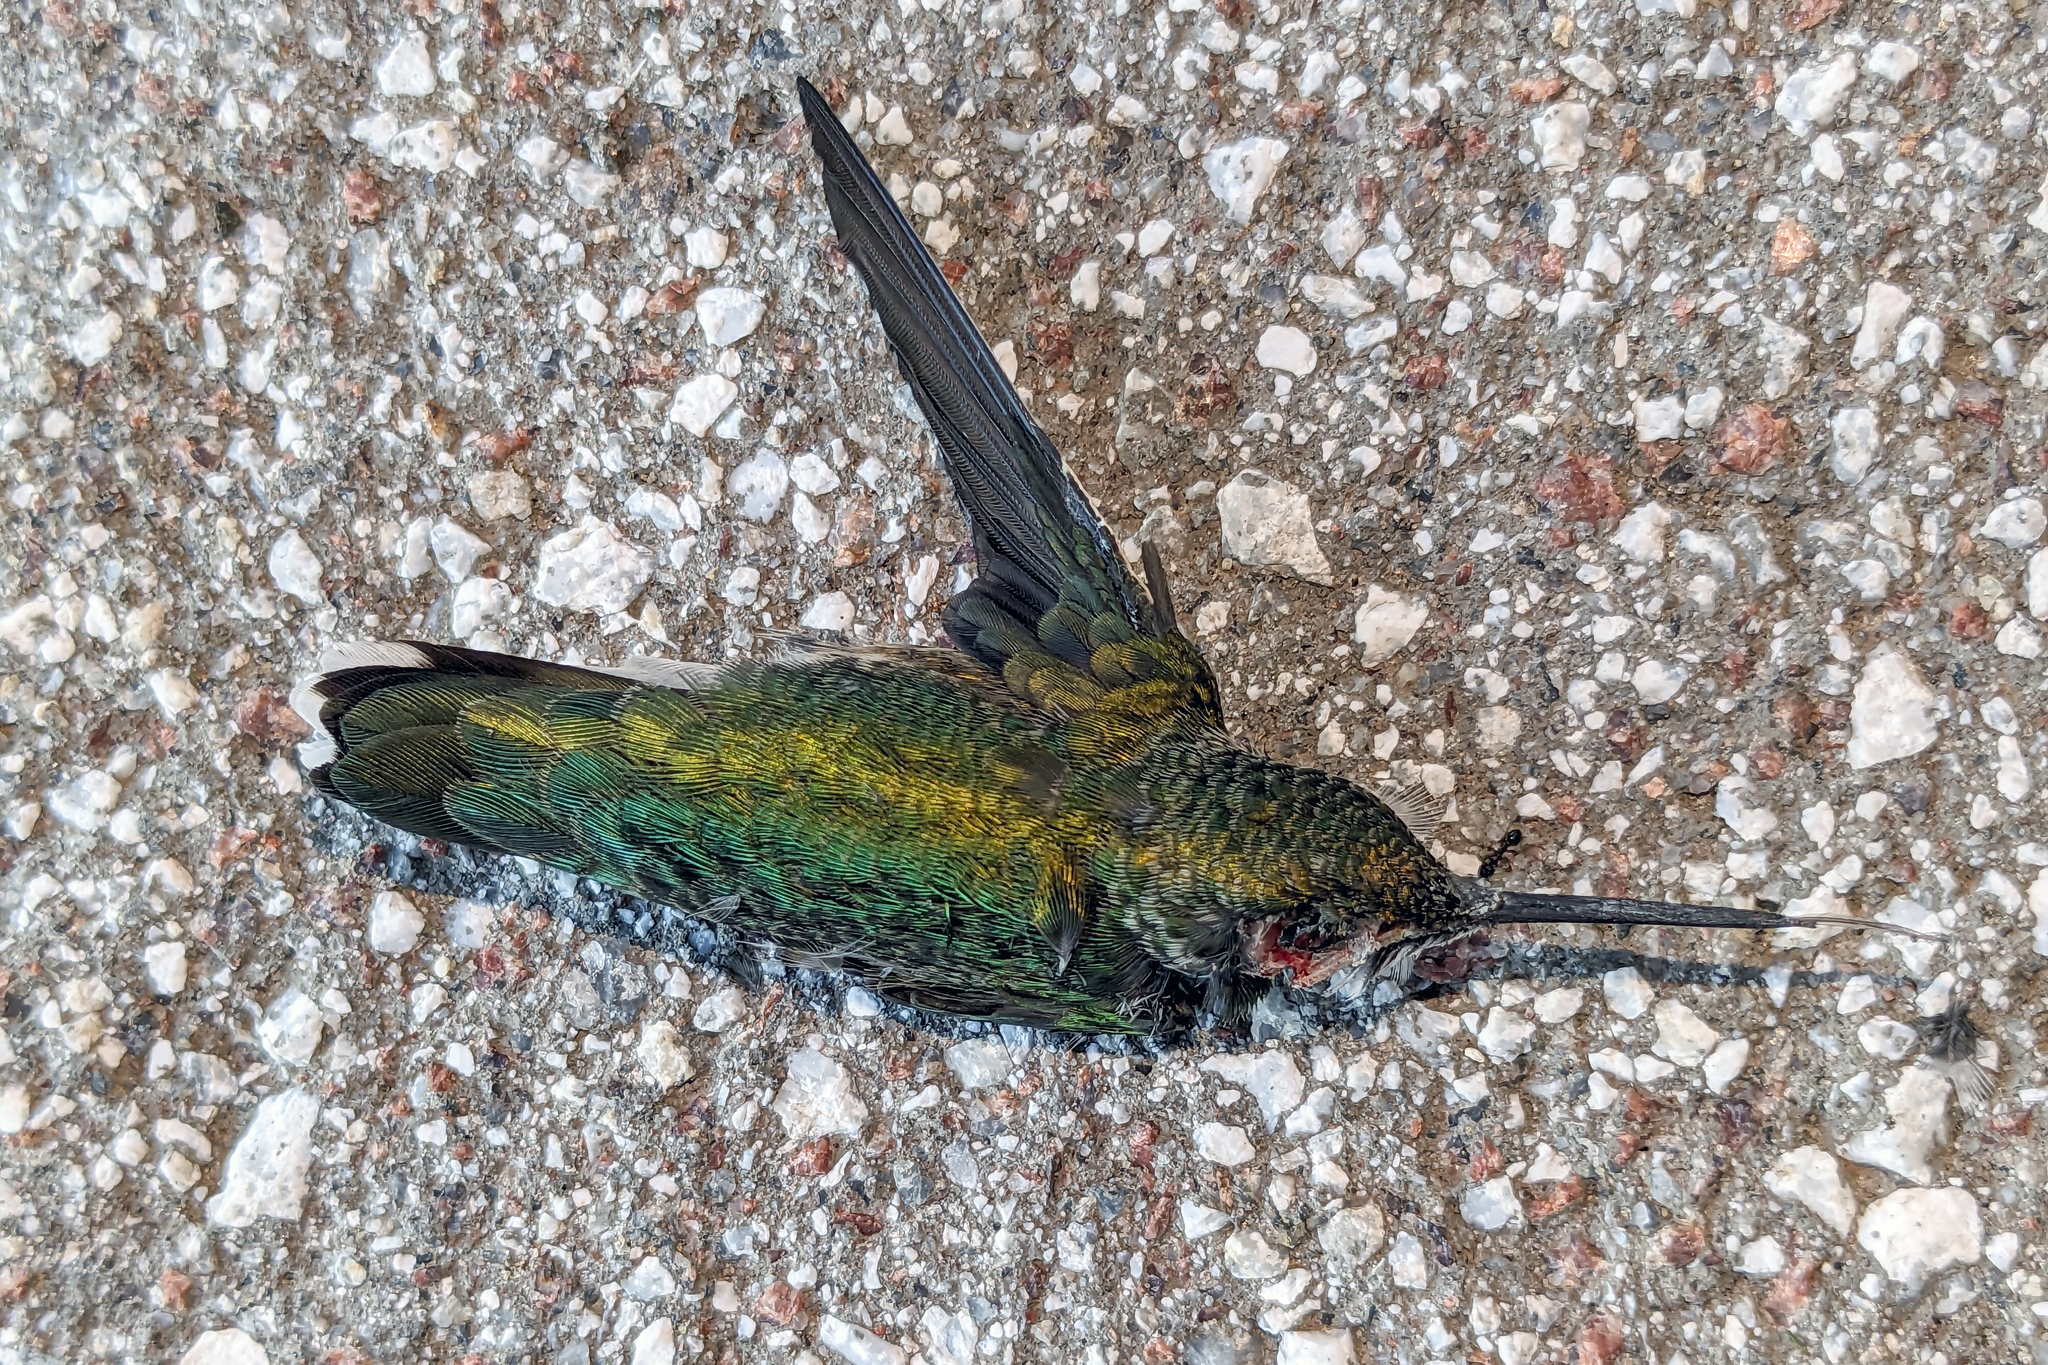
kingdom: Animalia
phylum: Chordata
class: Aves
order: Apodiformes
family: Trochilidae
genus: Archilochus
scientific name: Archilochus colubris
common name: Ruby-throated hummingbird
